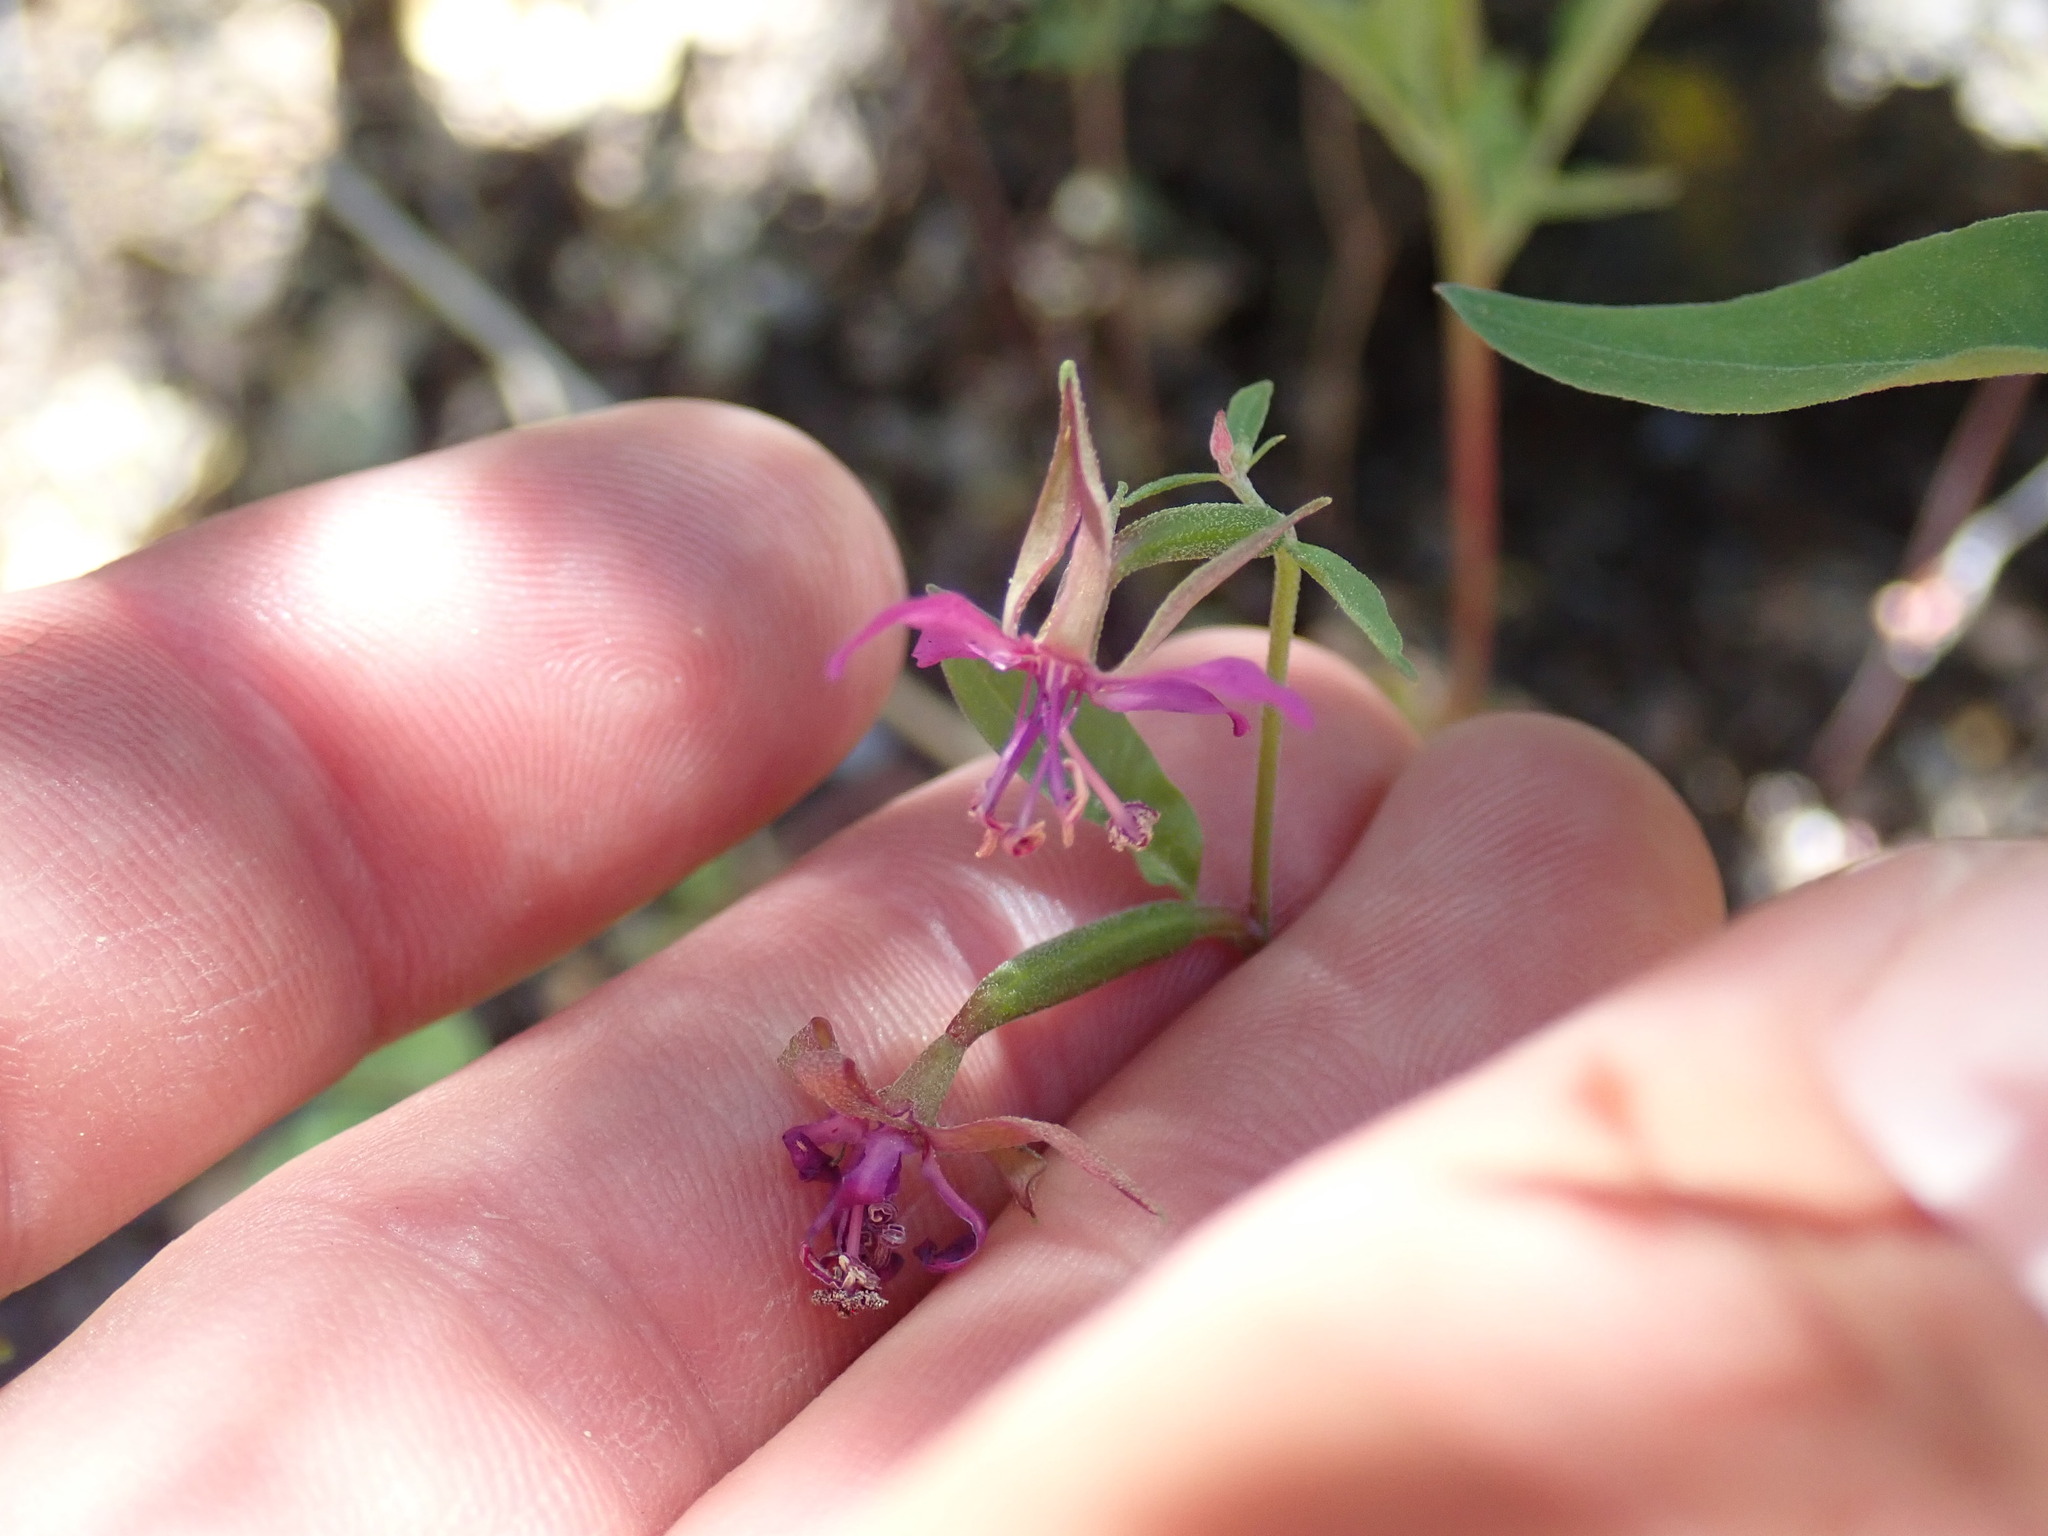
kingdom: Plantae
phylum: Tracheophyta
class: Magnoliopsida
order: Myrtales
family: Onagraceae
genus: Clarkia
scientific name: Clarkia rhomboidea
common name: Broadleaf clarkia
